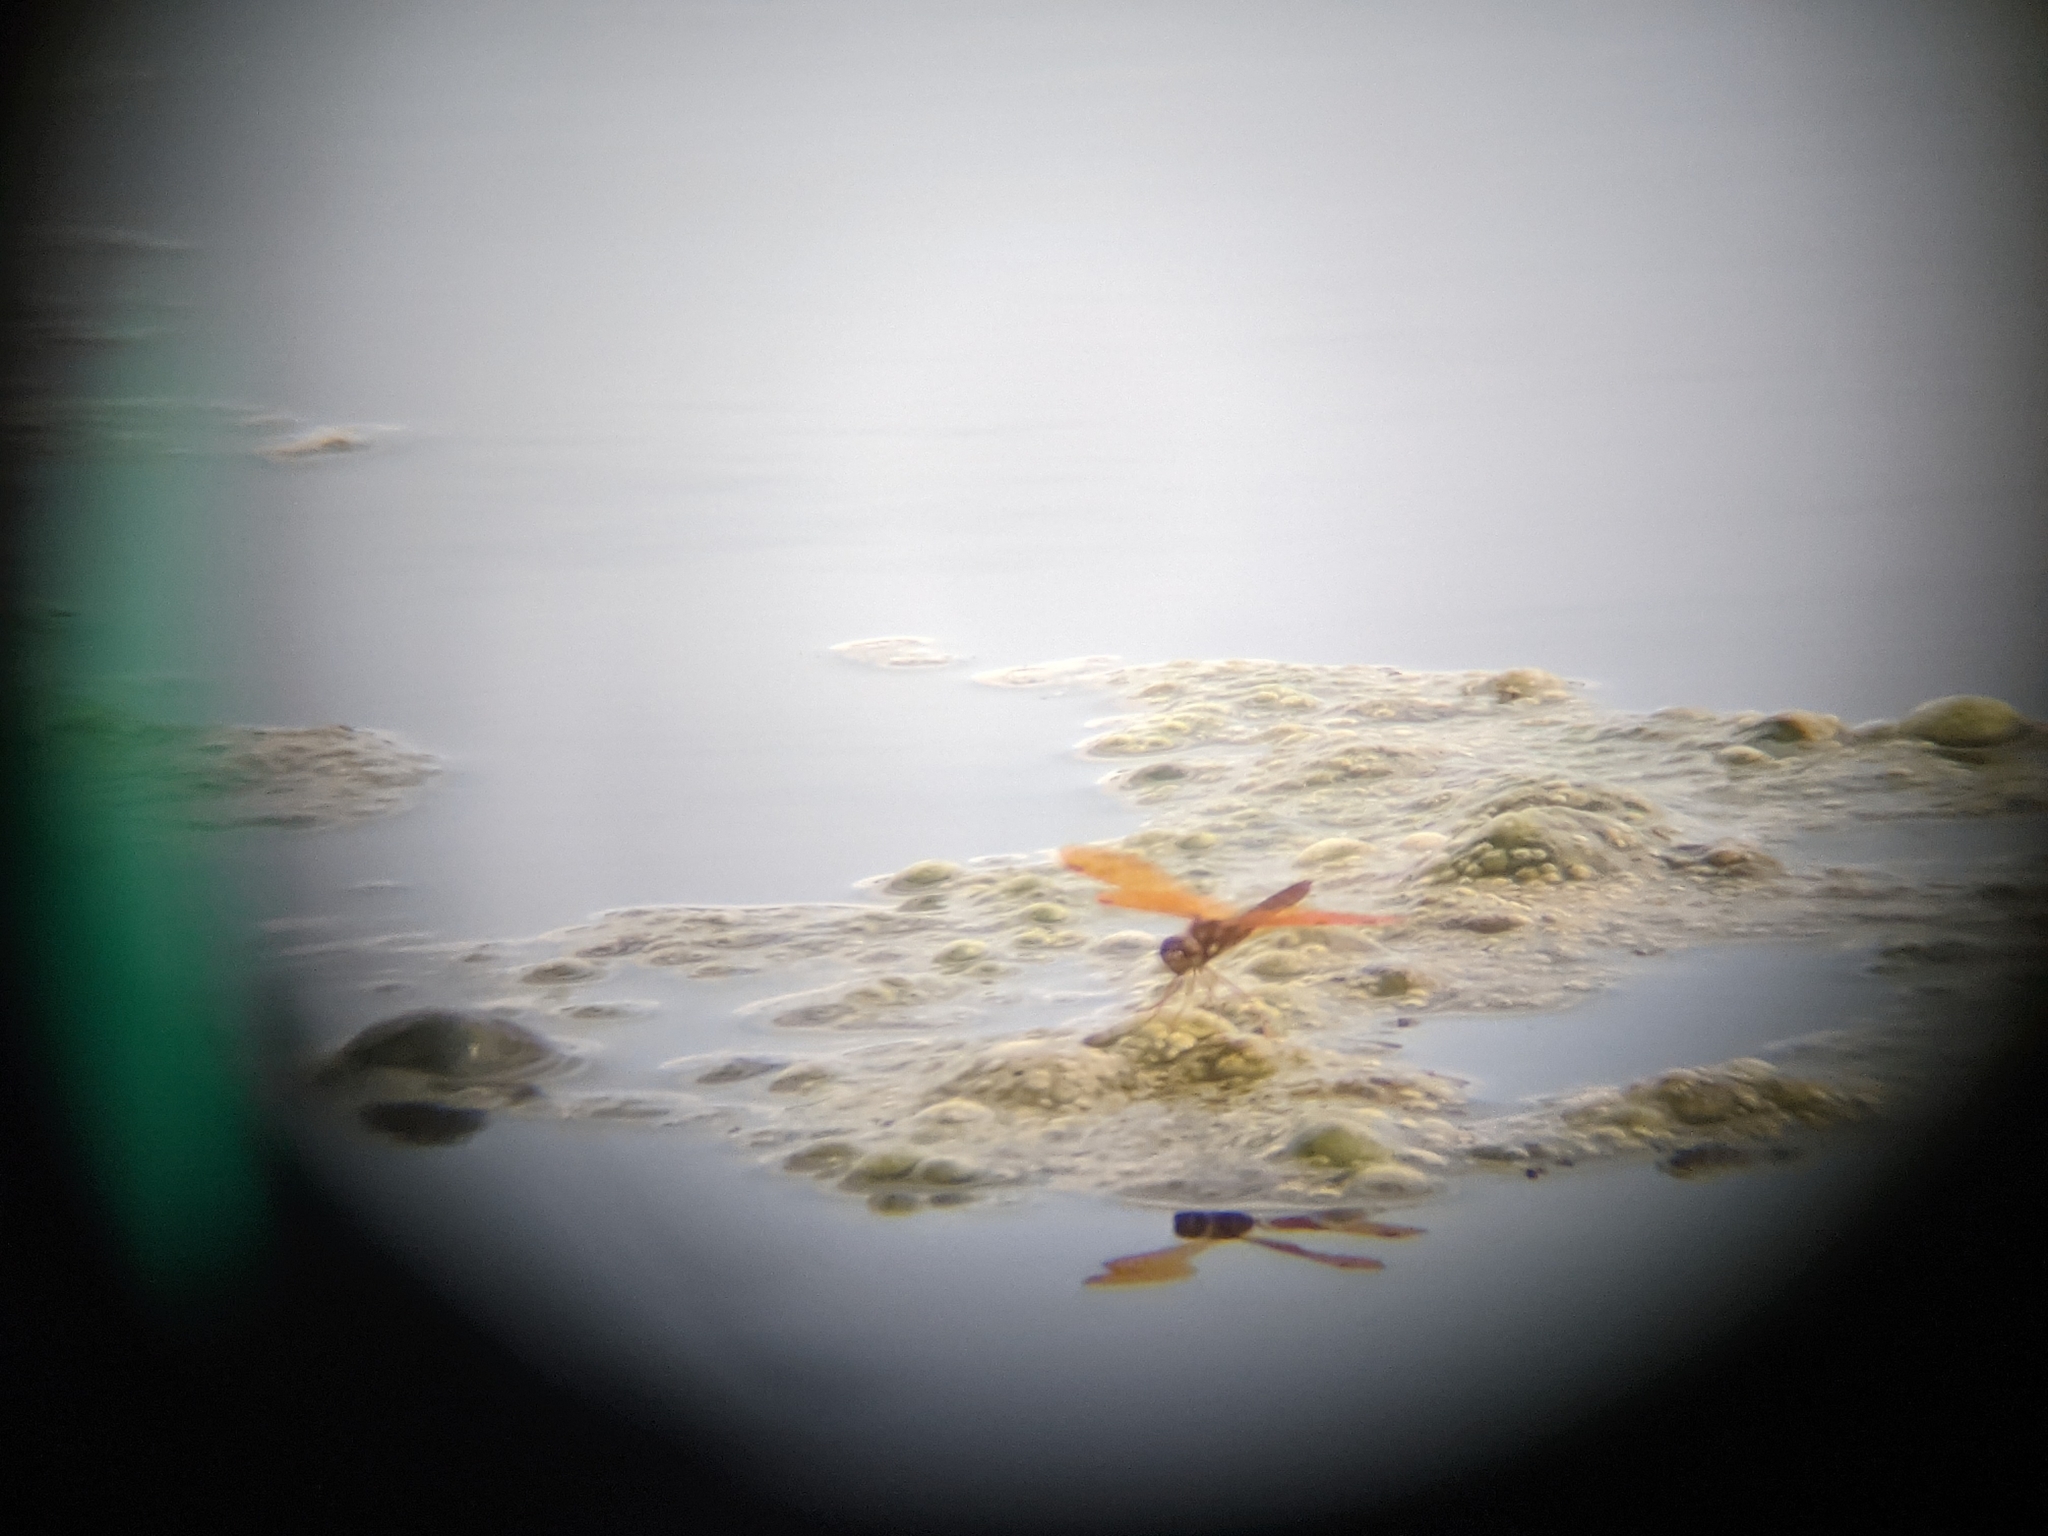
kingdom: Animalia
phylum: Arthropoda
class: Insecta
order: Odonata
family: Libellulidae
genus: Perithemis
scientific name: Perithemis tenera
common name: Eastern amberwing
